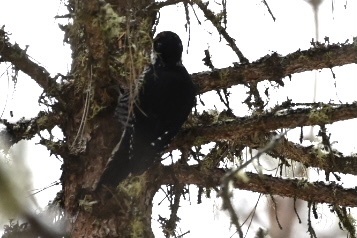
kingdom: Animalia
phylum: Chordata
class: Aves
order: Piciformes
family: Picidae
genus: Picoides
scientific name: Picoides arcticus
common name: Black-backed woodpecker
